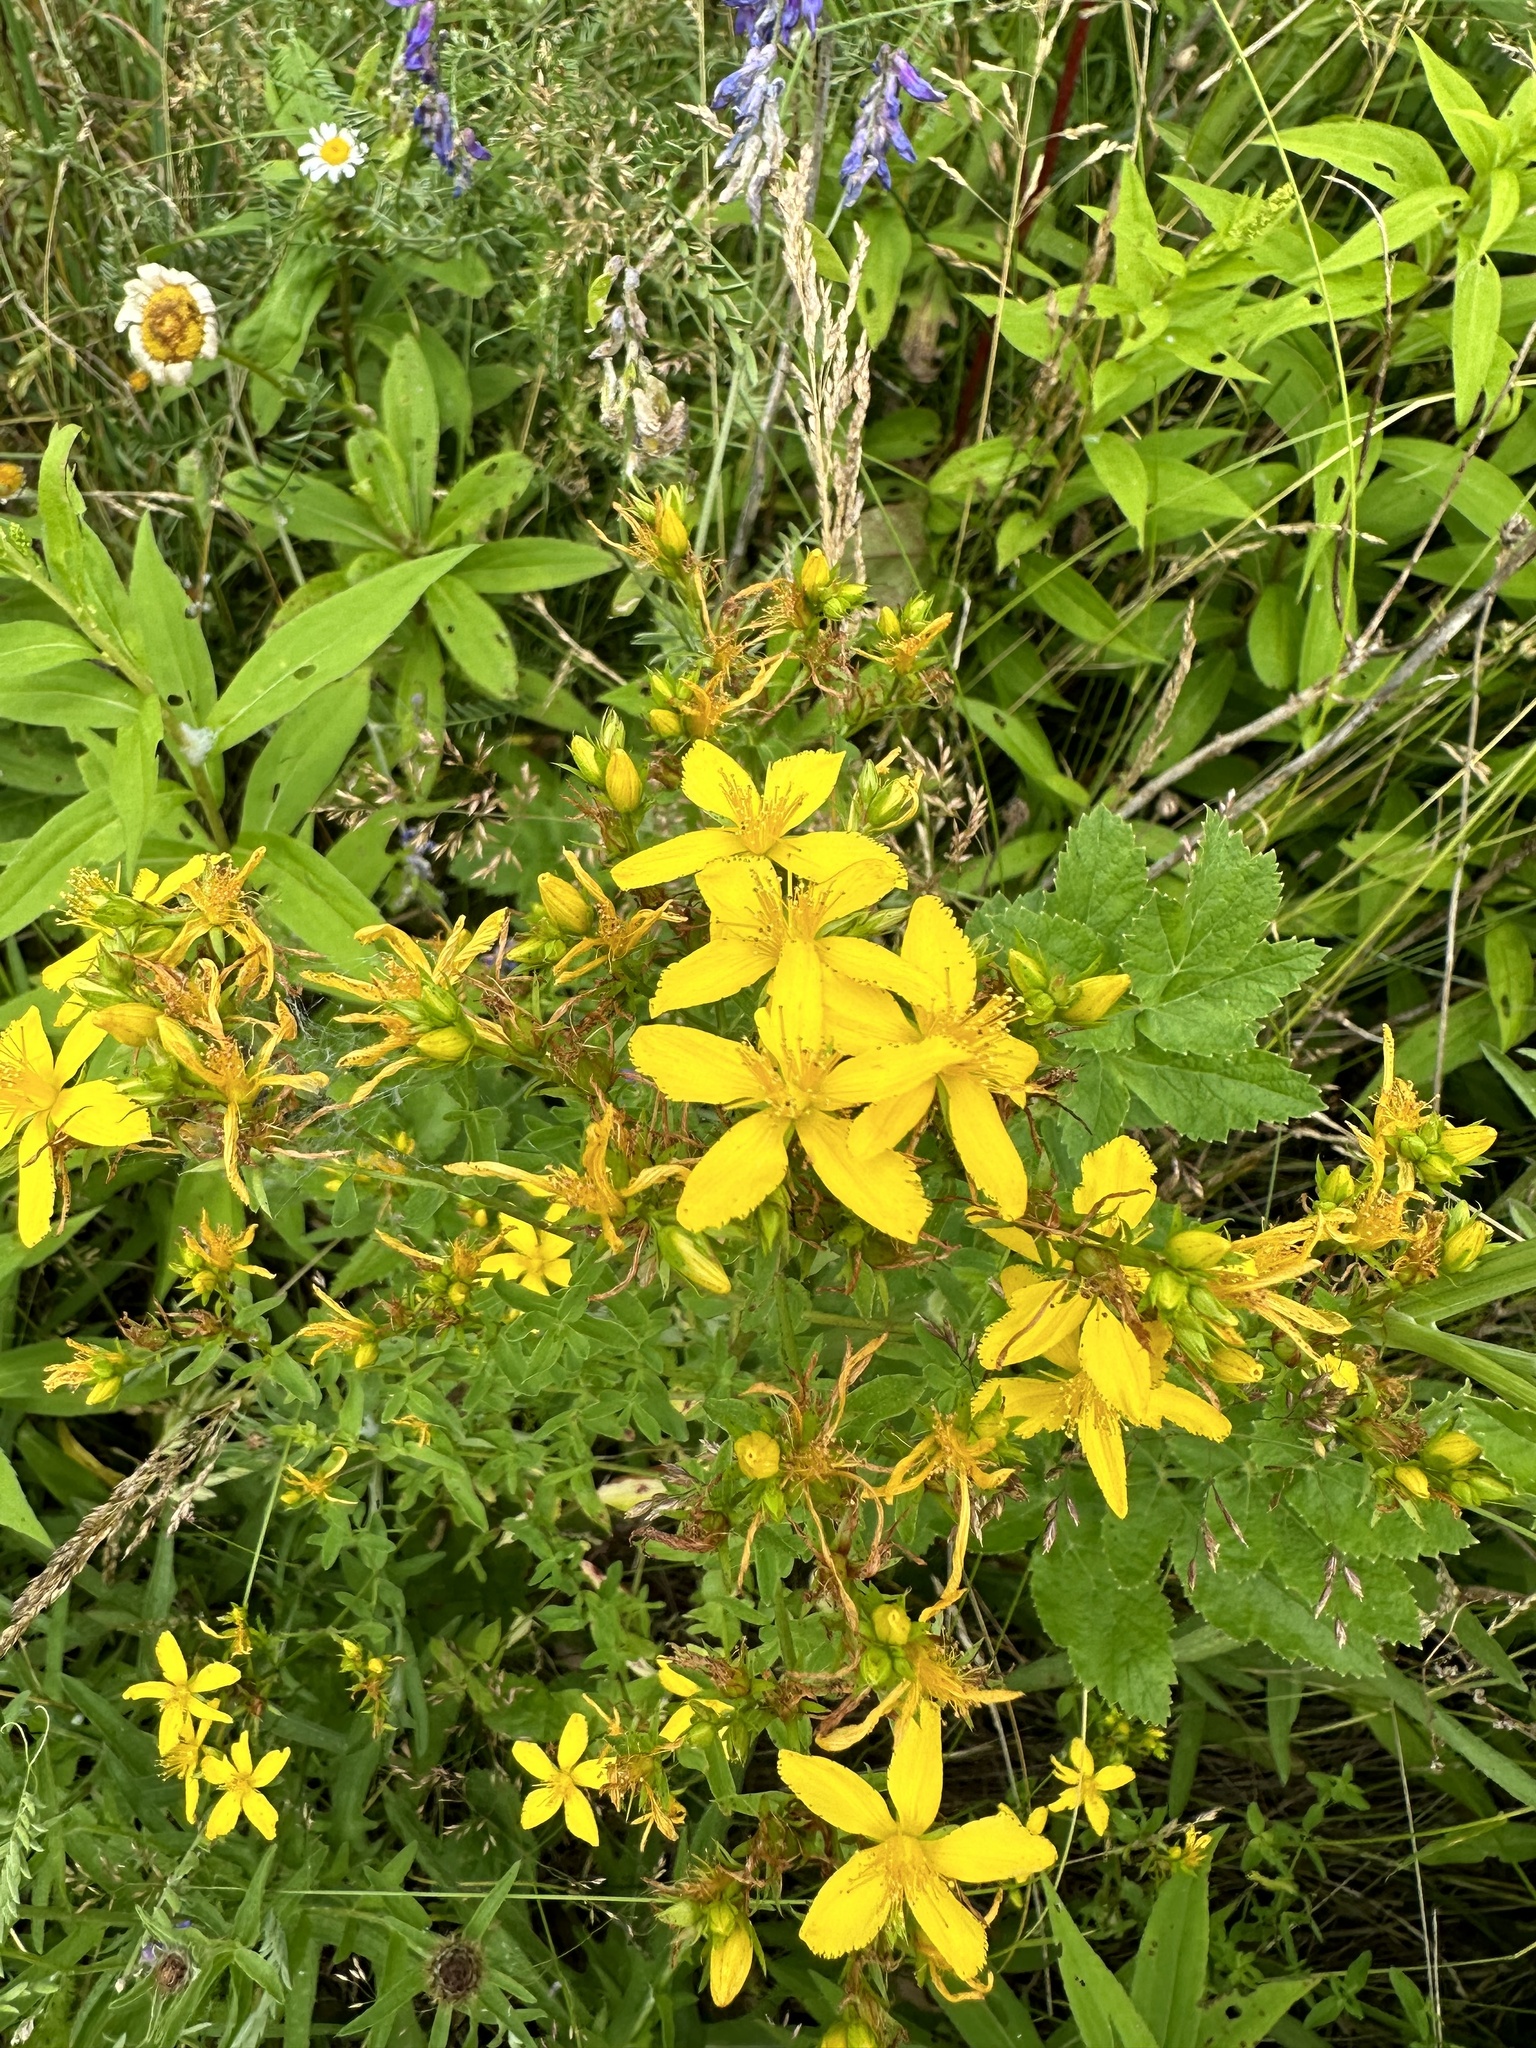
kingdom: Plantae
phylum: Tracheophyta
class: Magnoliopsida
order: Malpighiales
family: Hypericaceae
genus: Hypericum
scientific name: Hypericum perforatum
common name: Common st. johnswort
